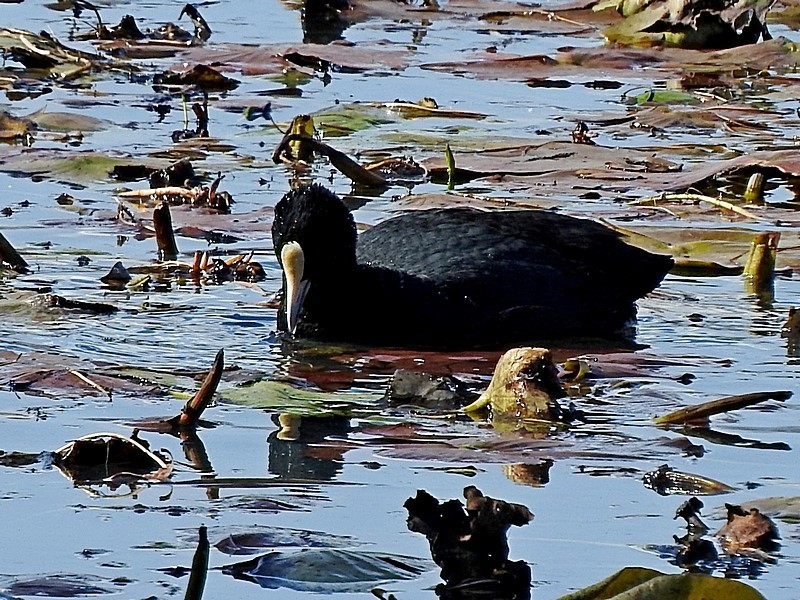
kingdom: Animalia
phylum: Chordata
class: Aves
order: Gruiformes
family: Rallidae
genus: Fulica
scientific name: Fulica atra
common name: Eurasian coot
